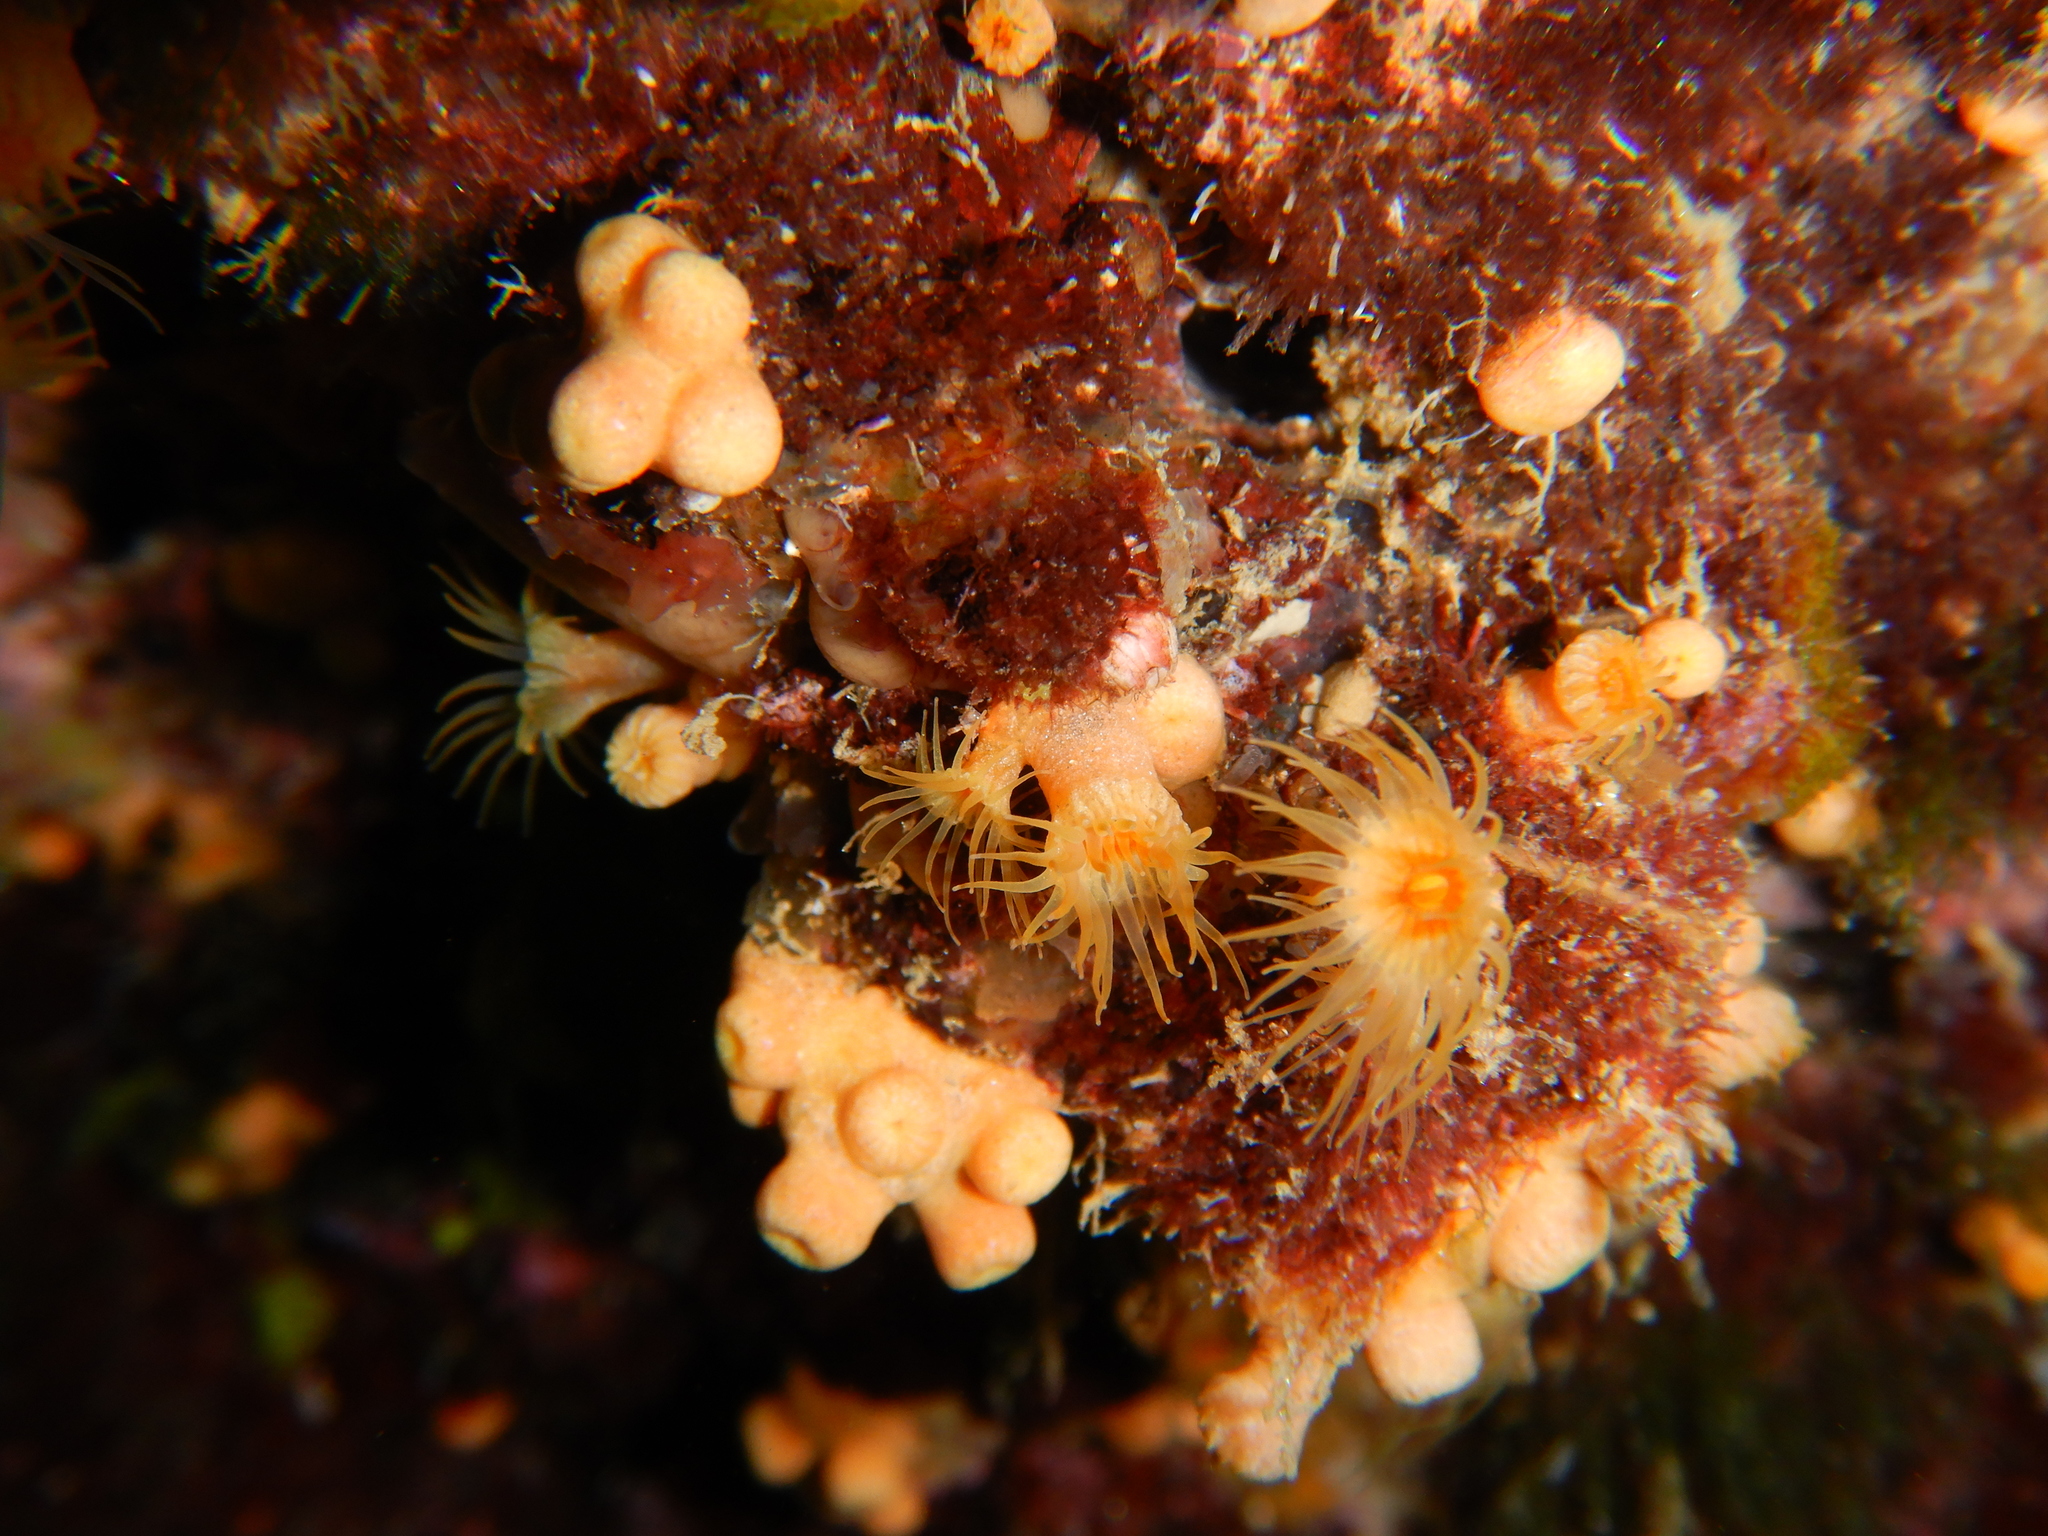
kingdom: Animalia
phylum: Cnidaria
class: Anthozoa
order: Zoantharia
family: Parazoanthidae
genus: Parazoanthus
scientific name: Parazoanthus axinellae
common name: Yellow cluster anemone
